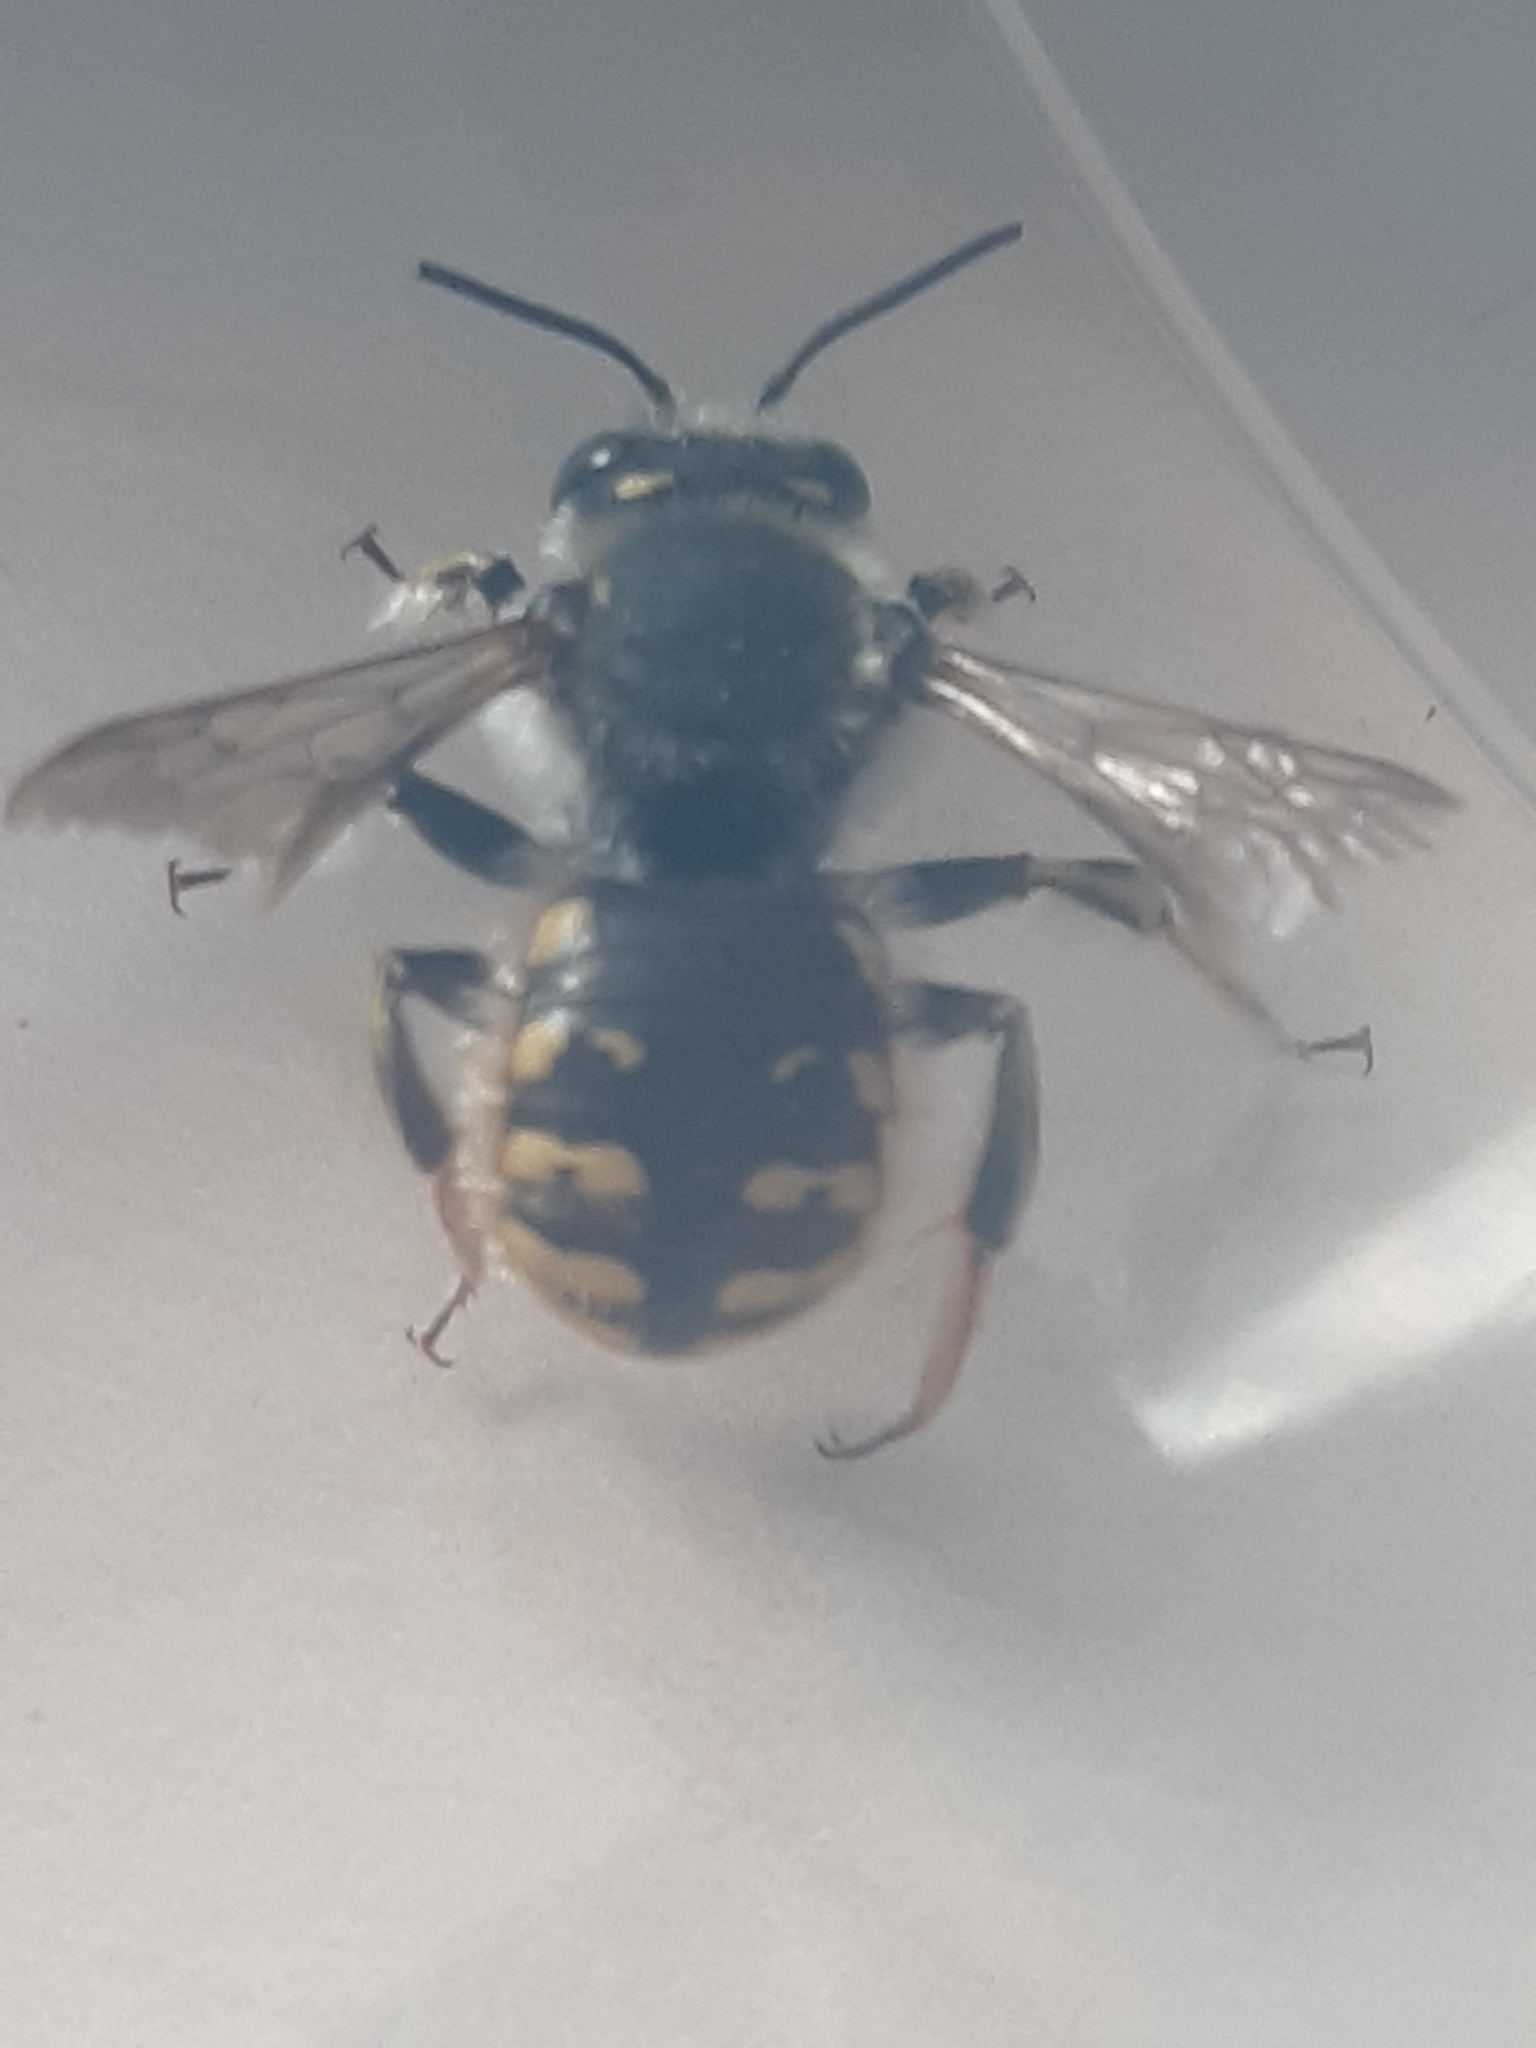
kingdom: Animalia
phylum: Arthropoda
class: Insecta
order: Hymenoptera
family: Megachilidae
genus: Anthidium
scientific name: Anthidium manicatum
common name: Wool carder bee
